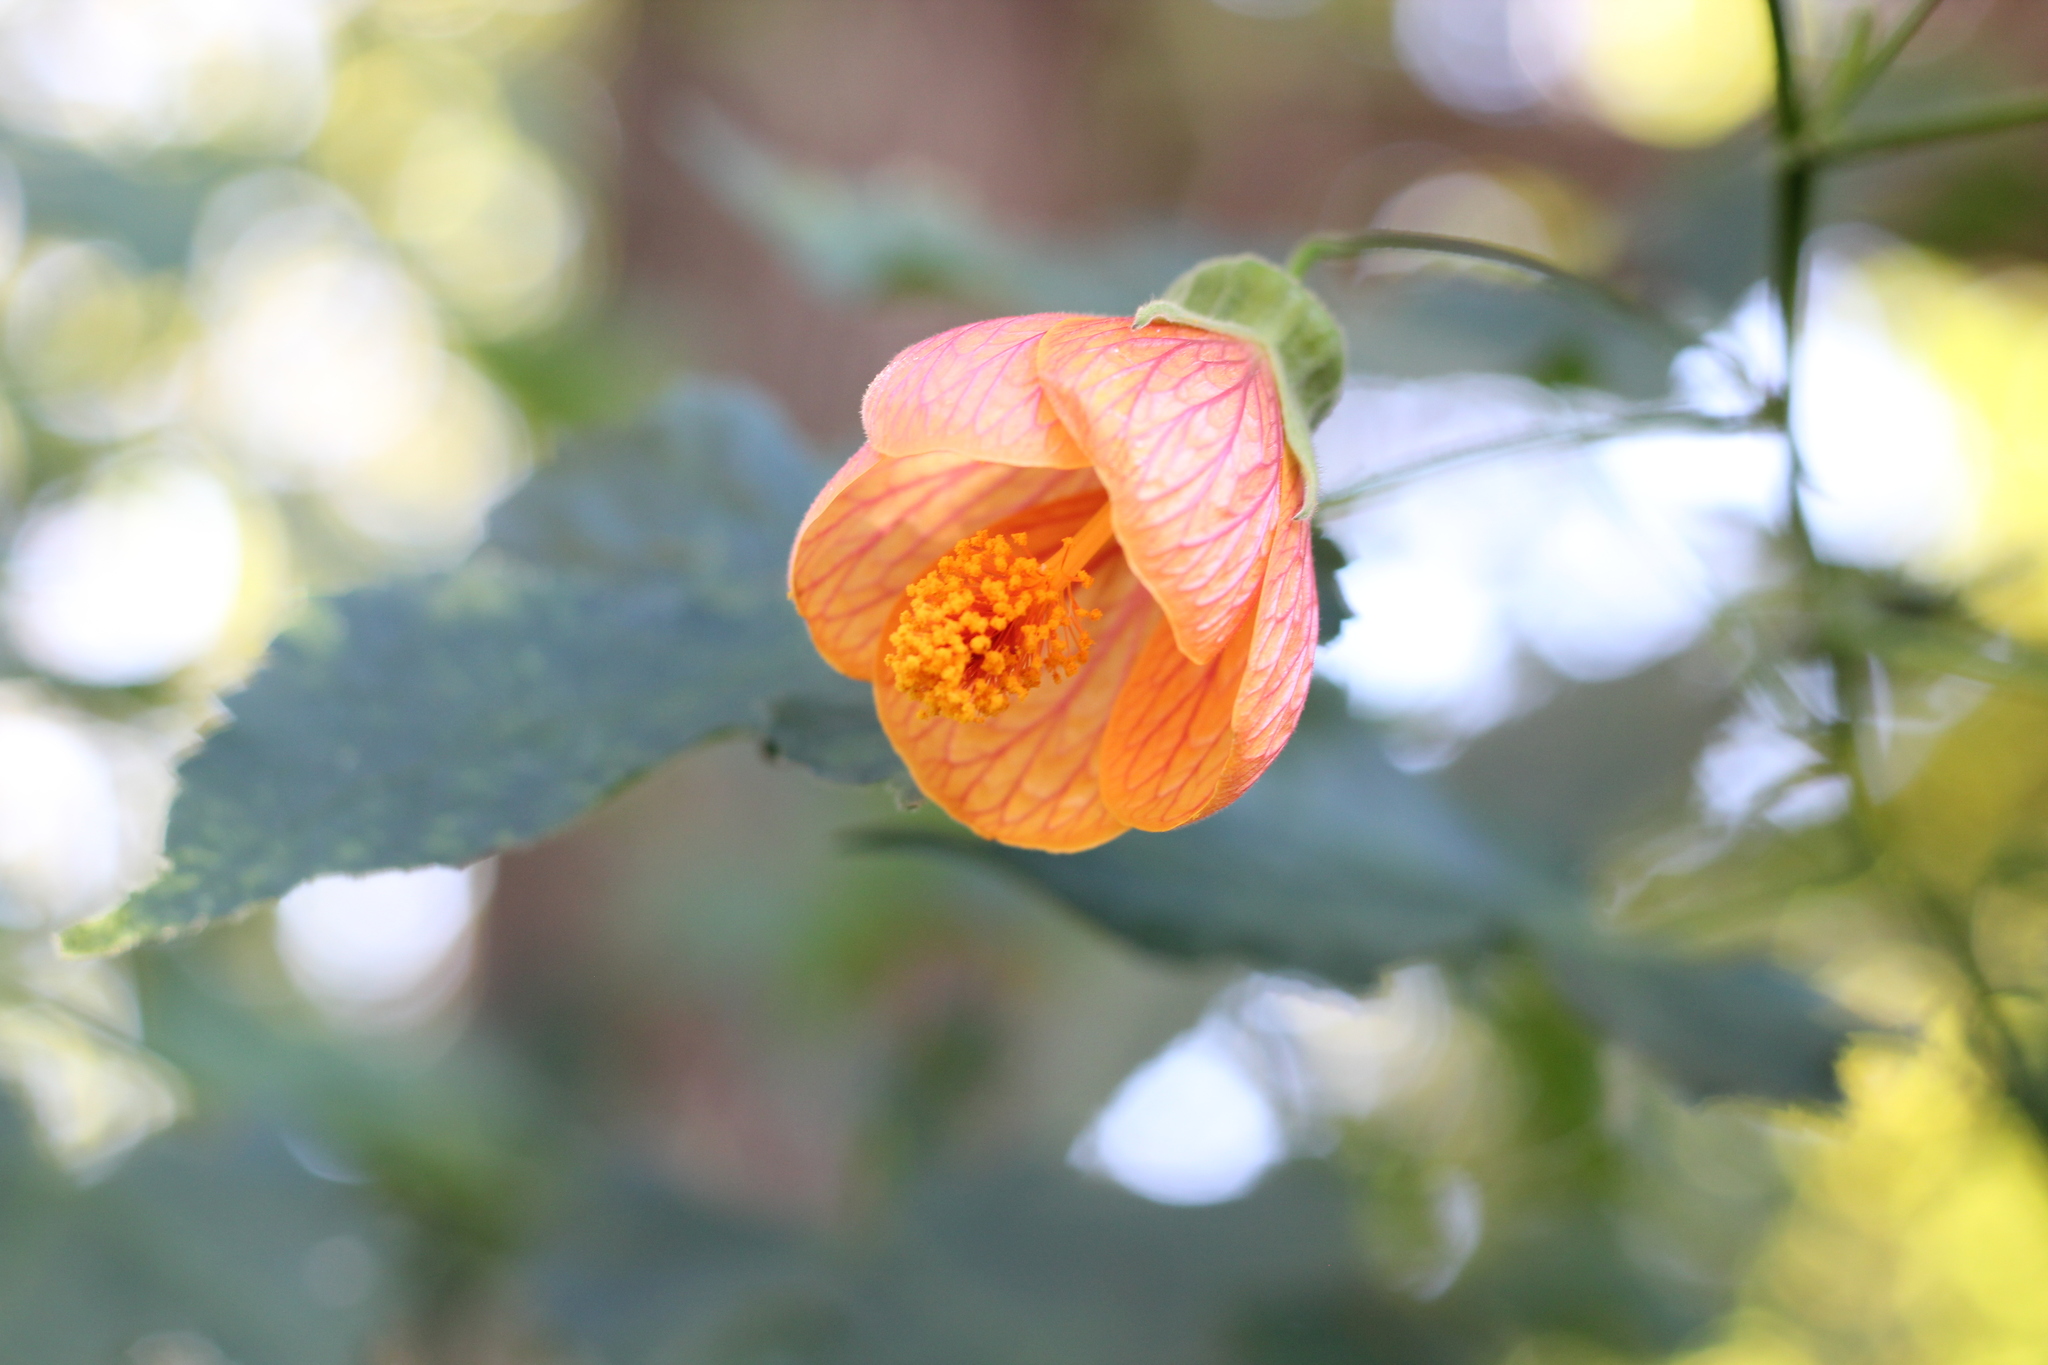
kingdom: Plantae
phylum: Tracheophyta
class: Magnoliopsida
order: Malvales
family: Malvaceae
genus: Callianthe
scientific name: Callianthe picta
